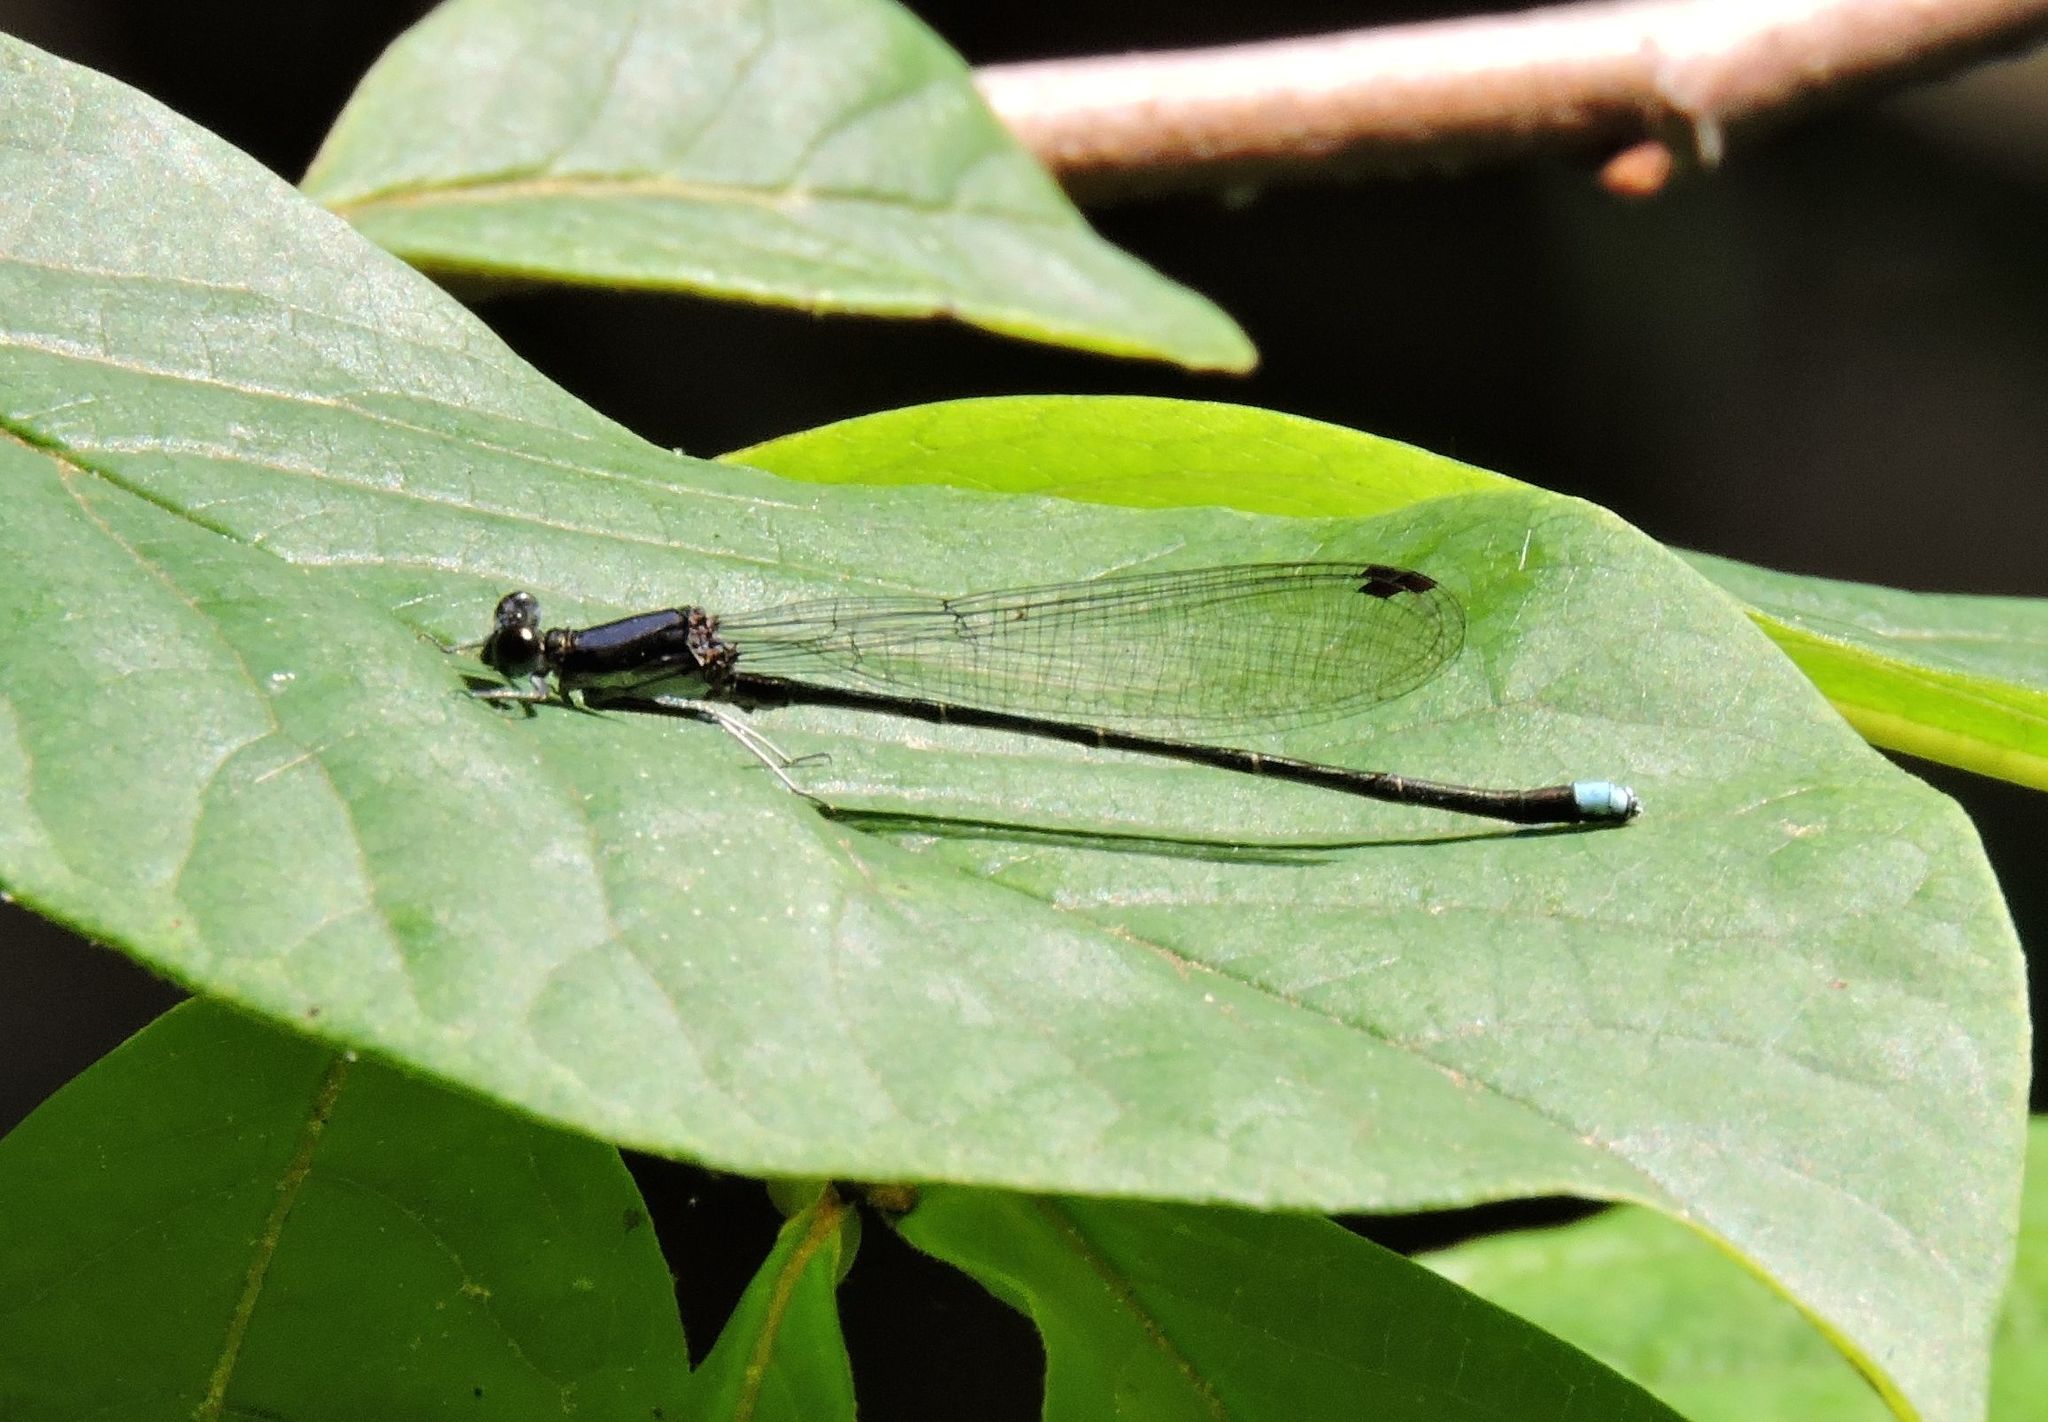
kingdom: Animalia
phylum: Arthropoda
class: Insecta
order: Odonata
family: Coenagrionidae
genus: Argia
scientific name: Argia tibialis
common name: Blue-tipped dancer
